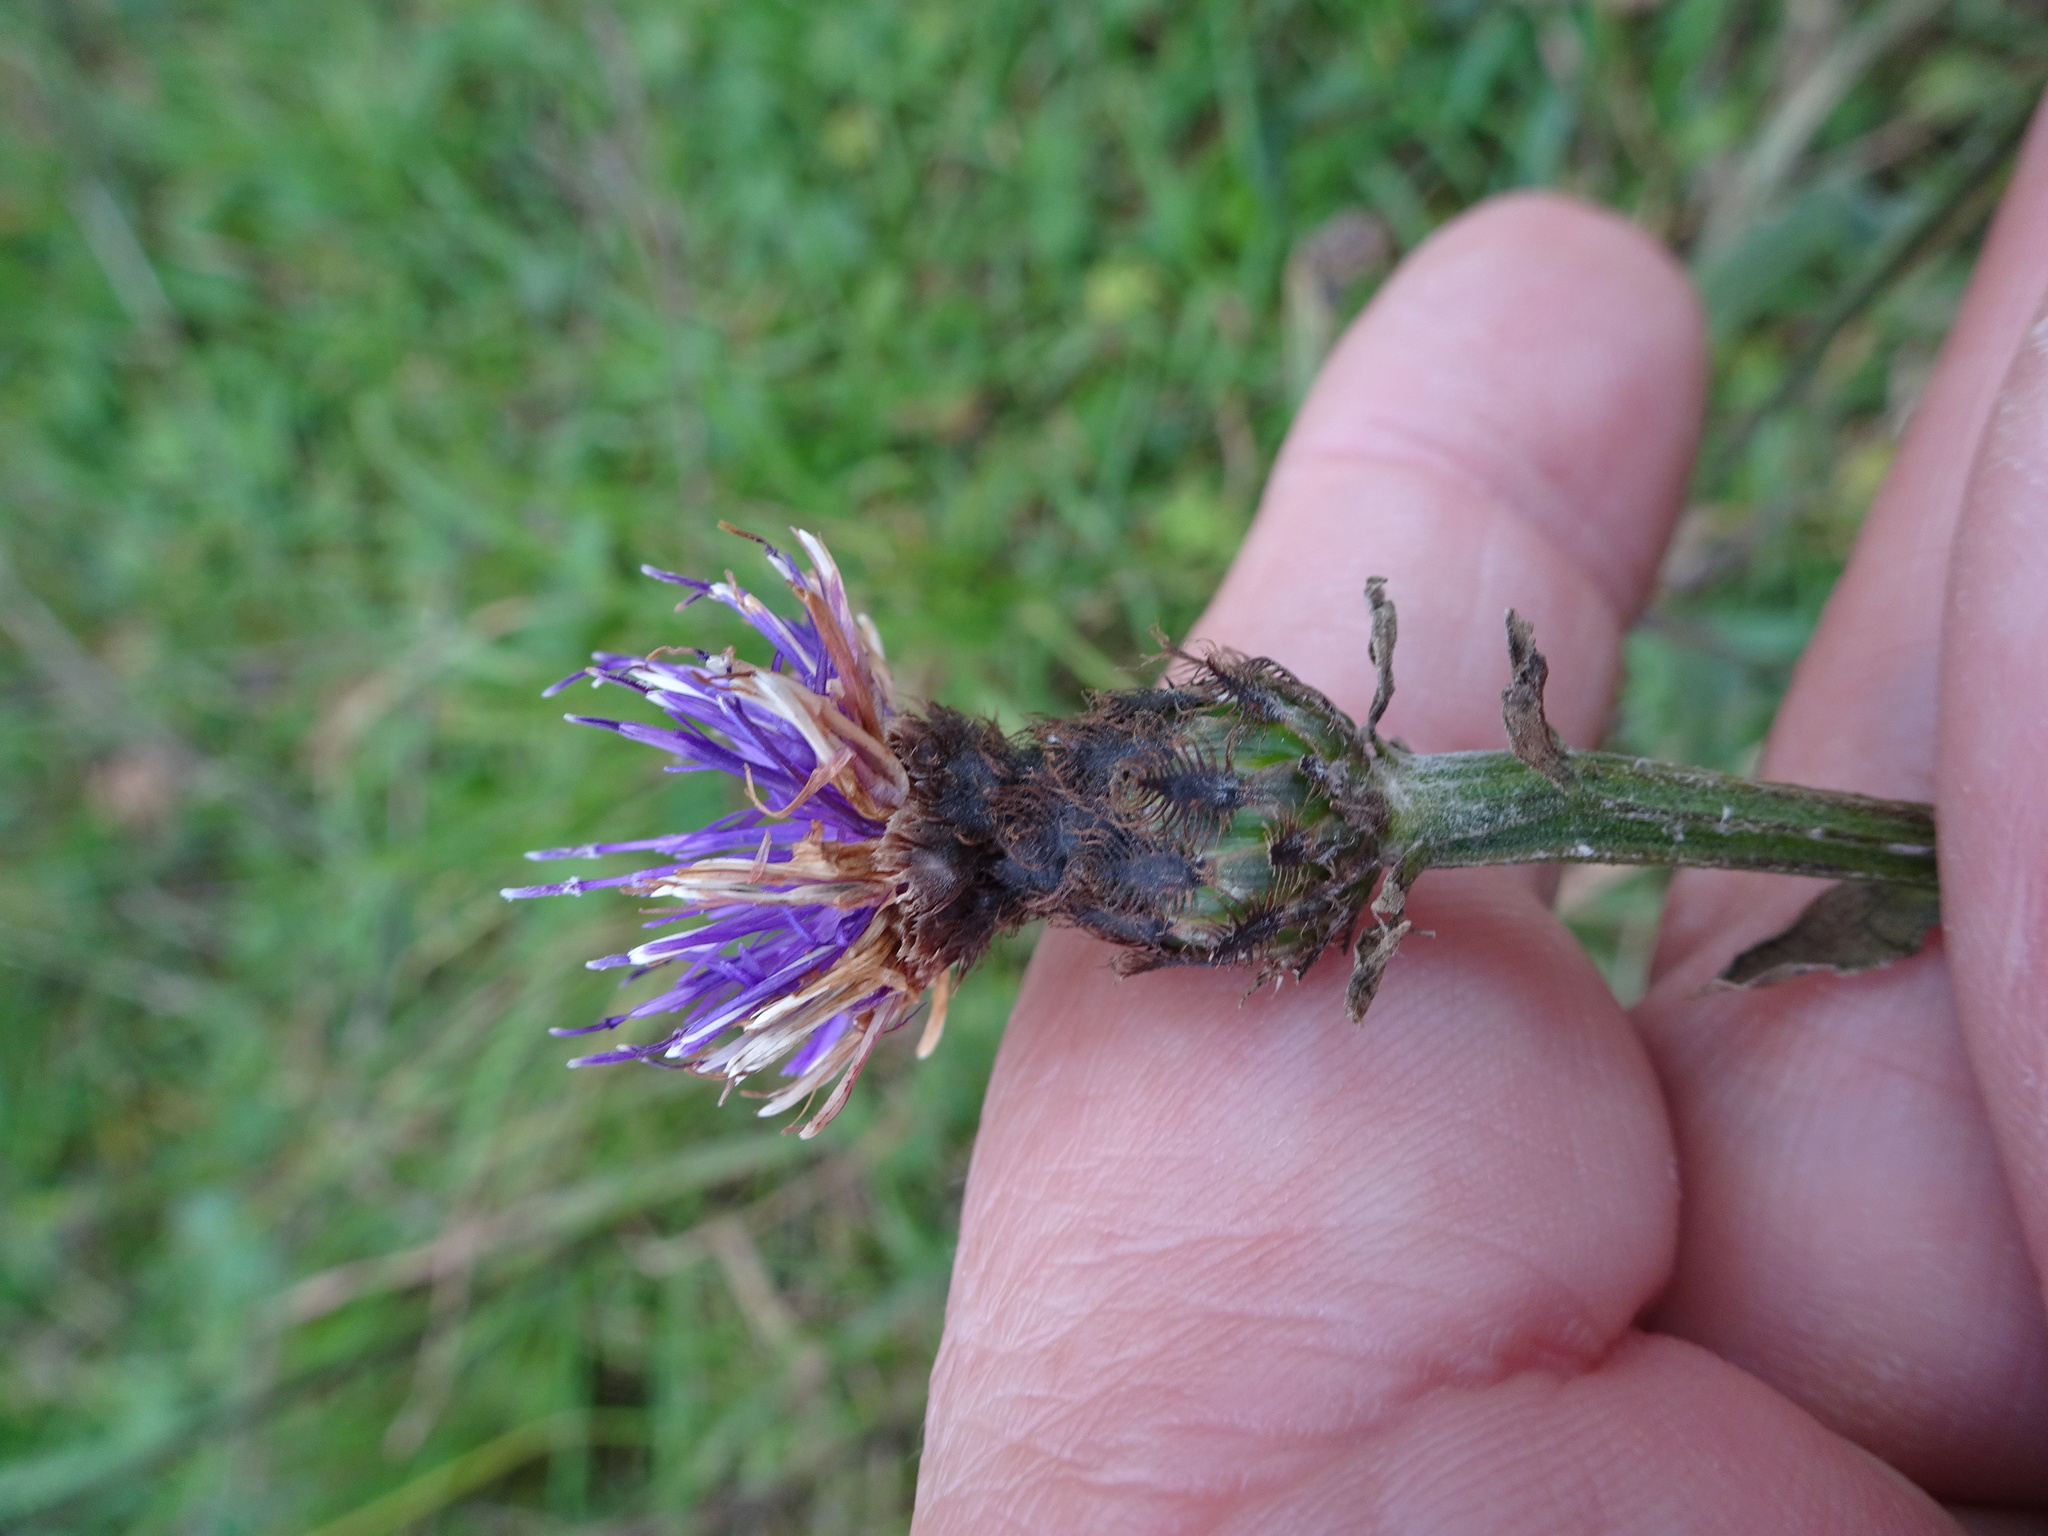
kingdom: Plantae
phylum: Tracheophyta
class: Magnoliopsida
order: Asterales
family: Asteraceae
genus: Centaurea
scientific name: Centaurea nigra
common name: Lesser knapweed
